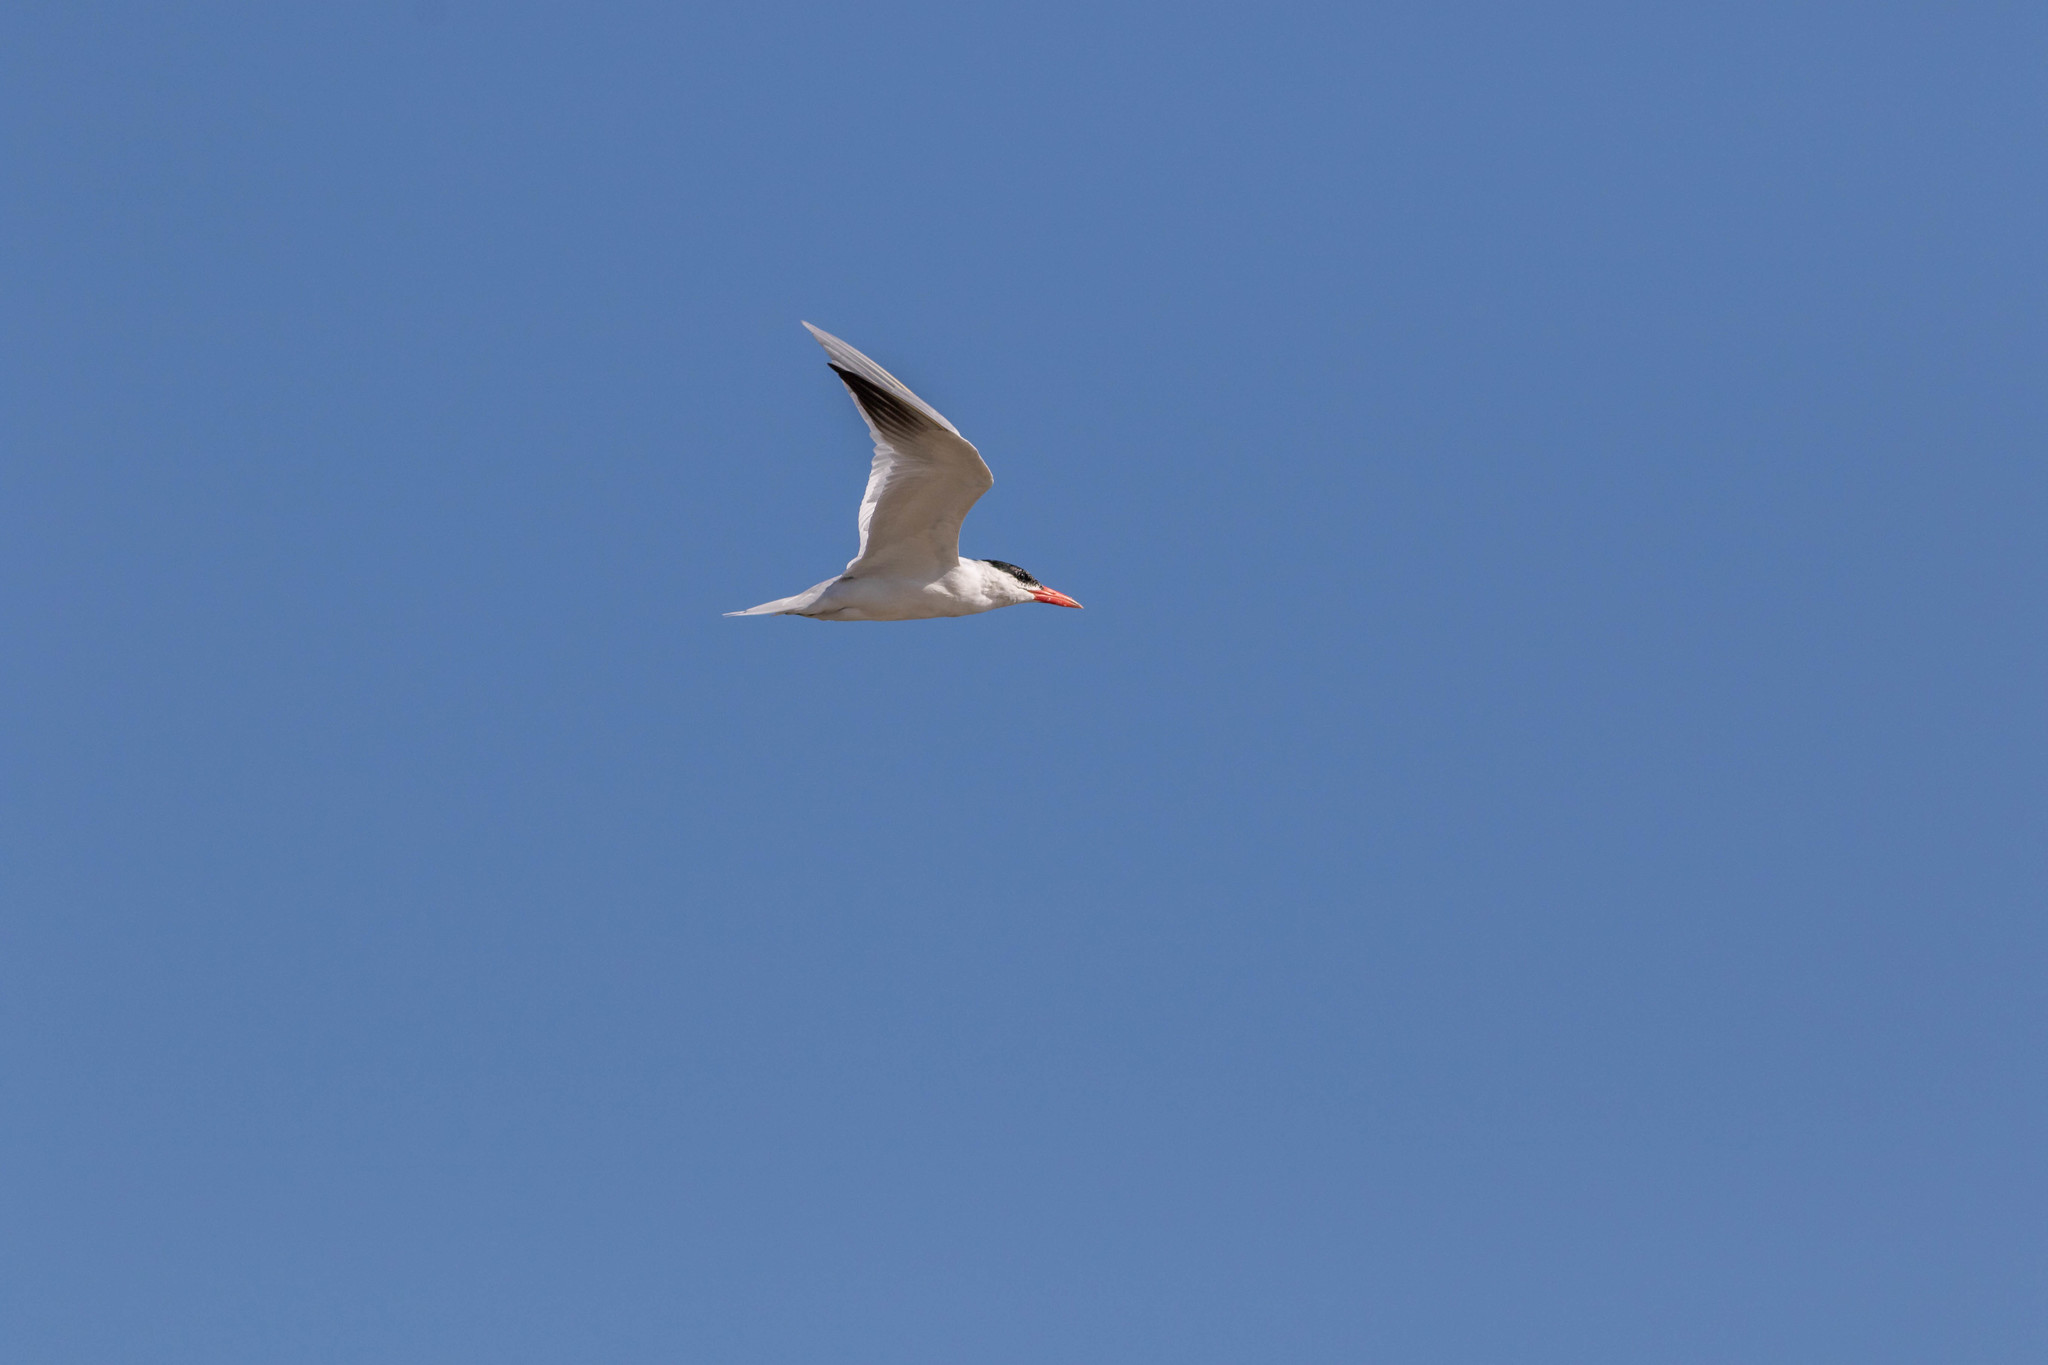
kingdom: Animalia
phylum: Chordata
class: Aves
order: Charadriiformes
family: Laridae
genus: Hydroprogne
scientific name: Hydroprogne caspia
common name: Caspian tern
